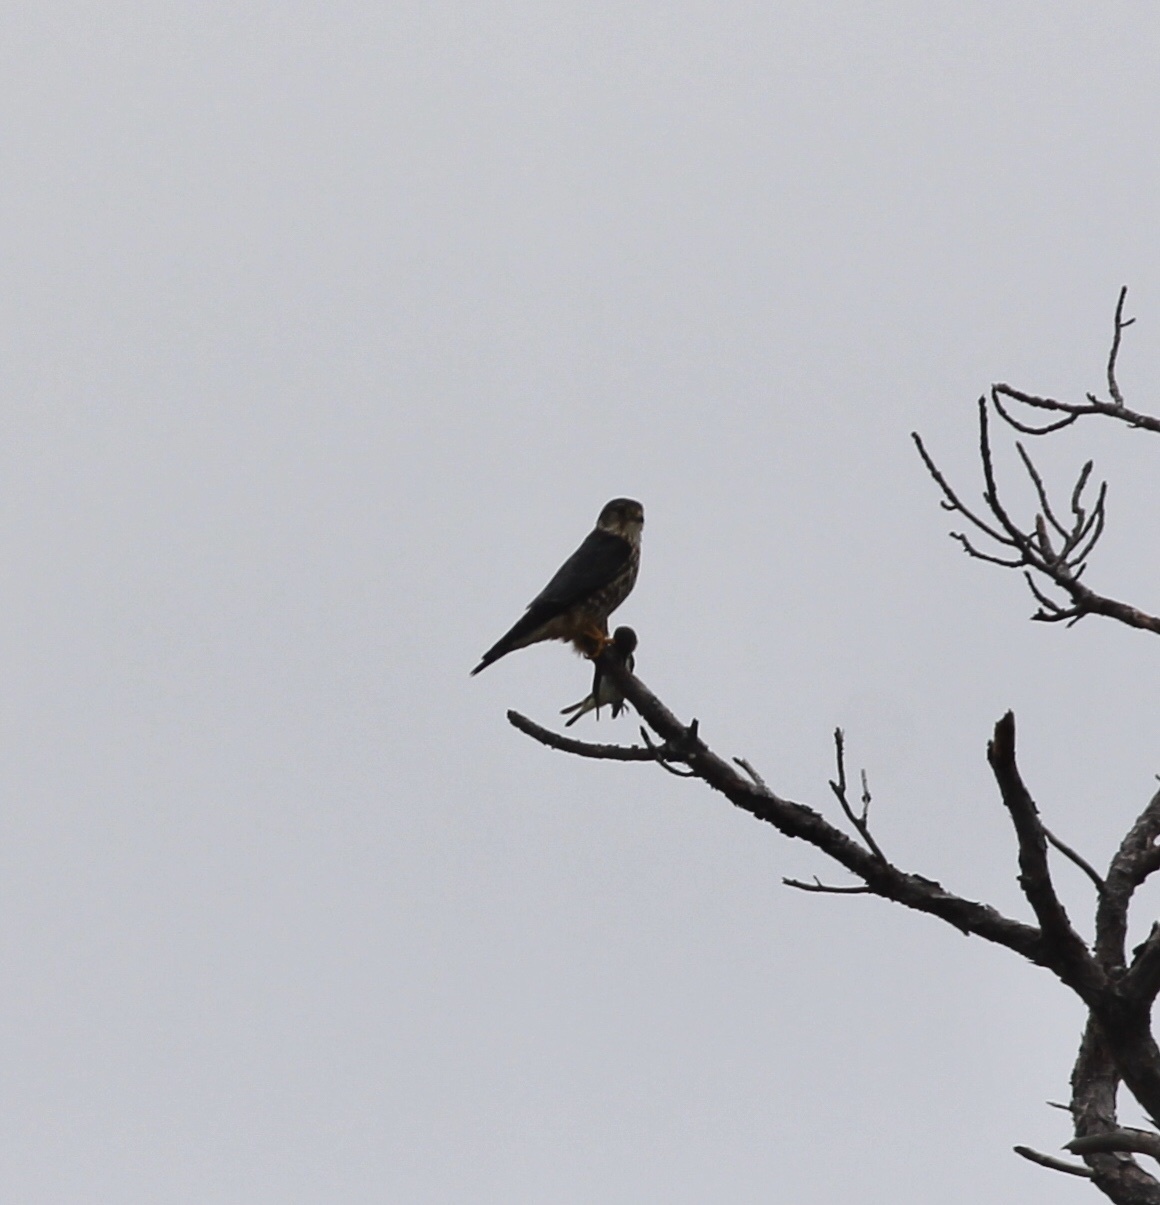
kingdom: Animalia
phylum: Chordata
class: Aves
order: Falconiformes
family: Falconidae
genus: Falco
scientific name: Falco columbarius
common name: Merlin
